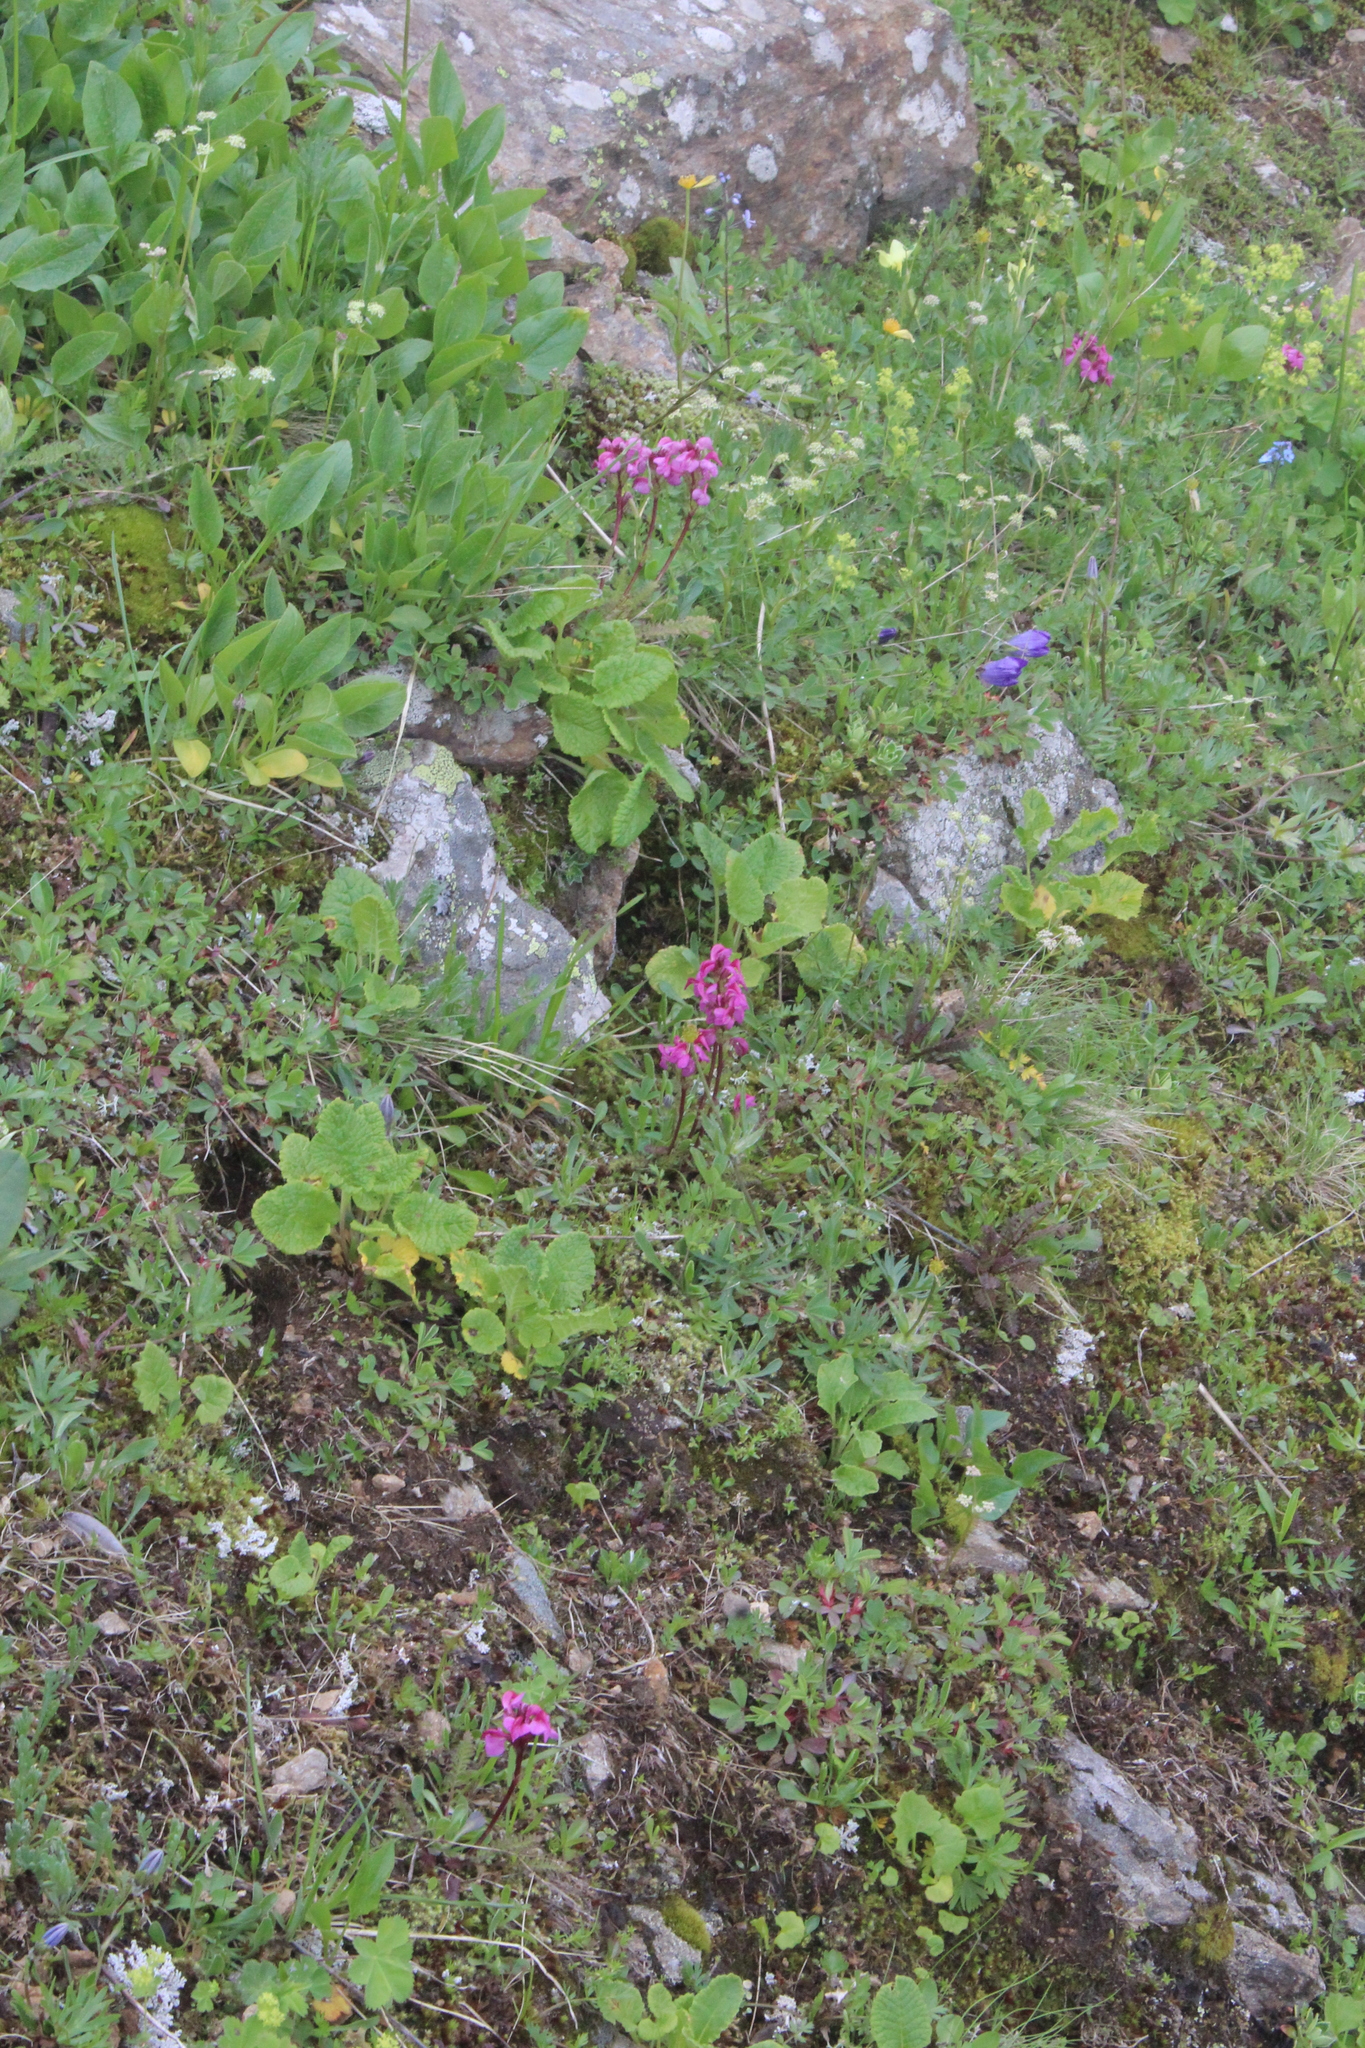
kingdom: Plantae
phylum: Tracheophyta
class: Magnoliopsida
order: Lamiales
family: Orobanchaceae
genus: Pedicularis
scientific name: Pedicularis nordmanniana
